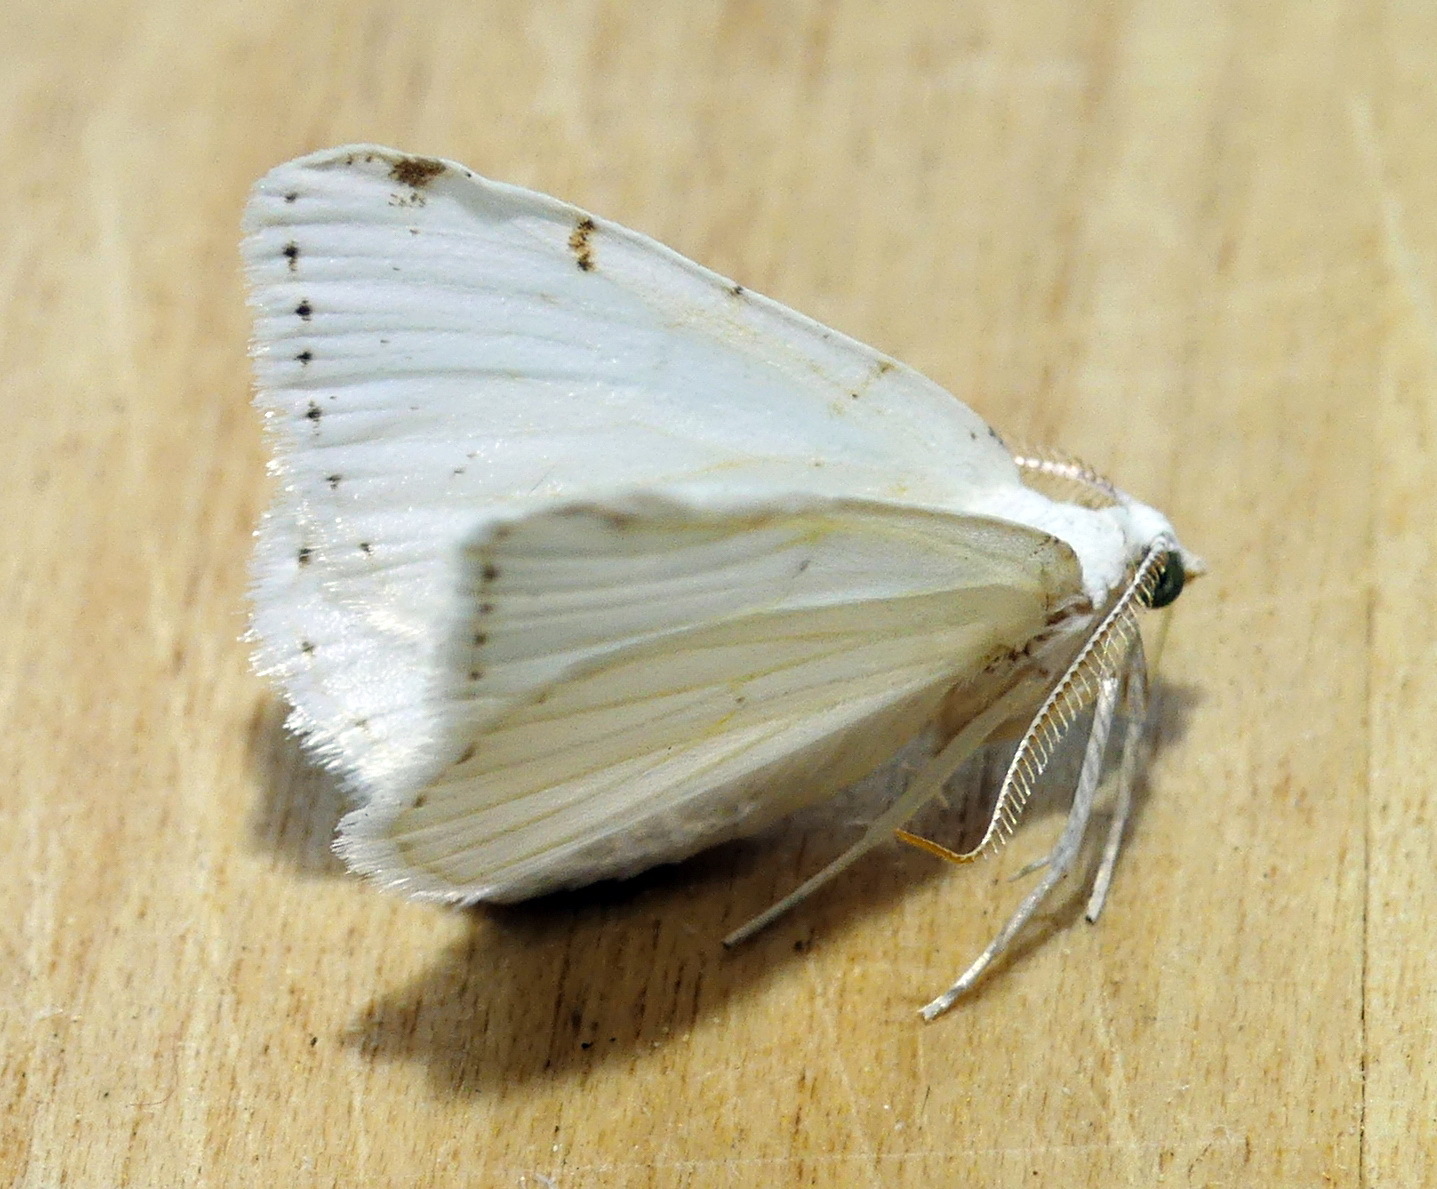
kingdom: Animalia
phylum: Arthropoda
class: Insecta
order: Lepidoptera
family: Geometridae
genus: Macaria
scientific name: Macaria pustularia
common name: Lesser maple spanworm moth
